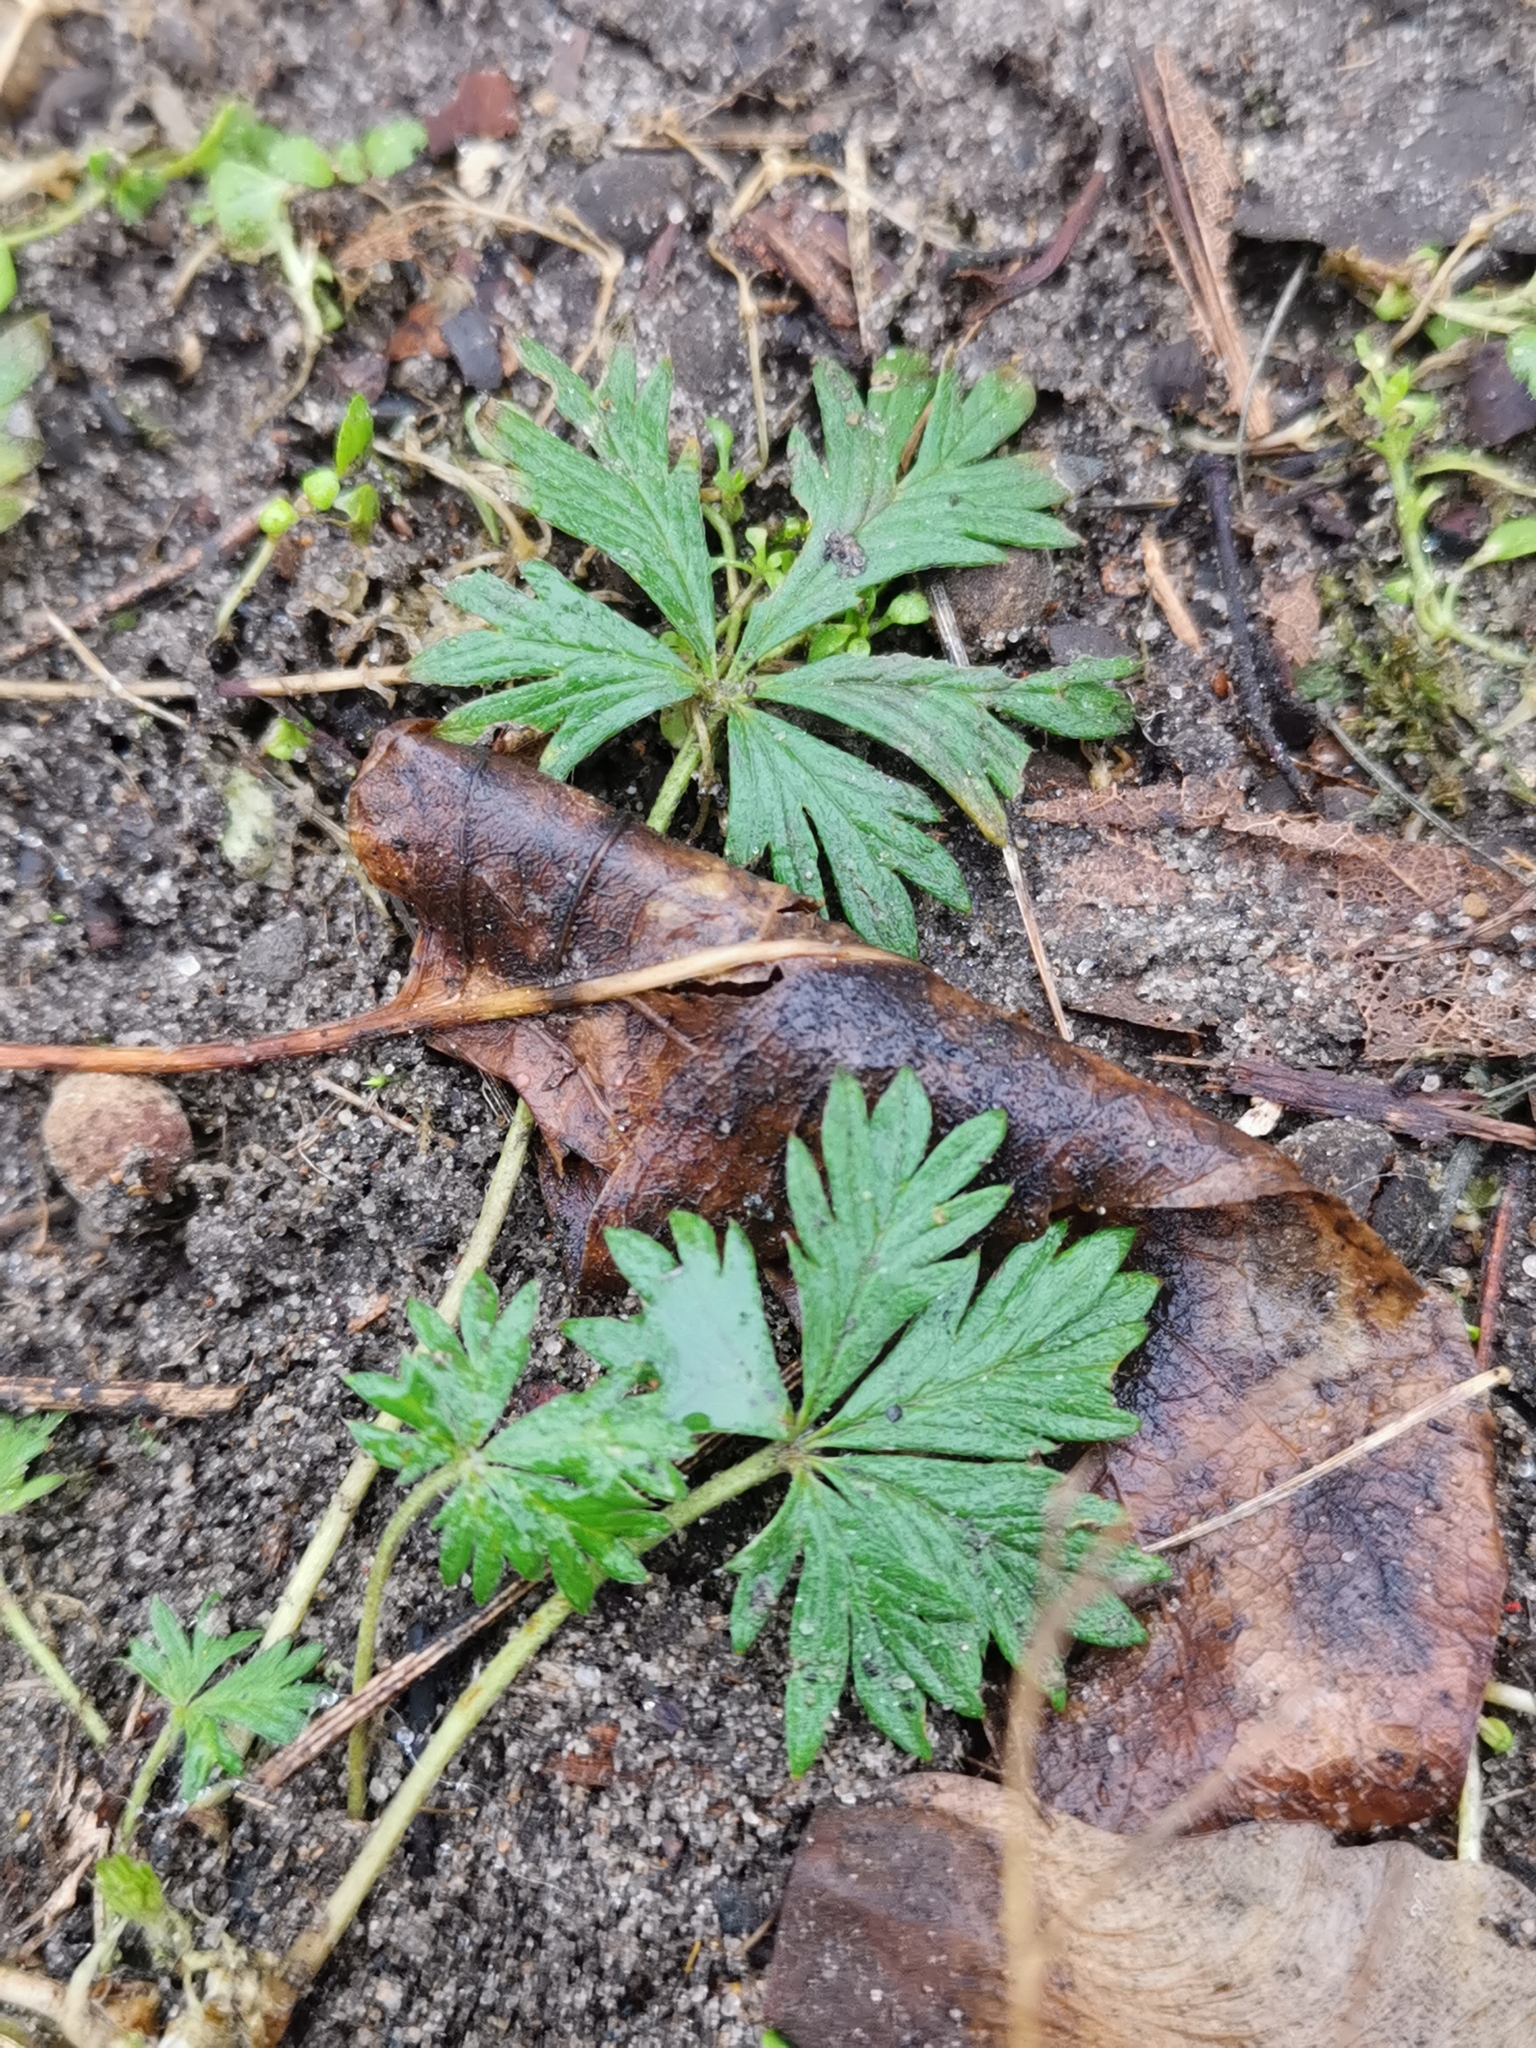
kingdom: Plantae
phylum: Tracheophyta
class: Magnoliopsida
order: Rosales
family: Rosaceae
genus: Potentilla
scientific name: Potentilla argentea
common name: Hoary cinquefoil
